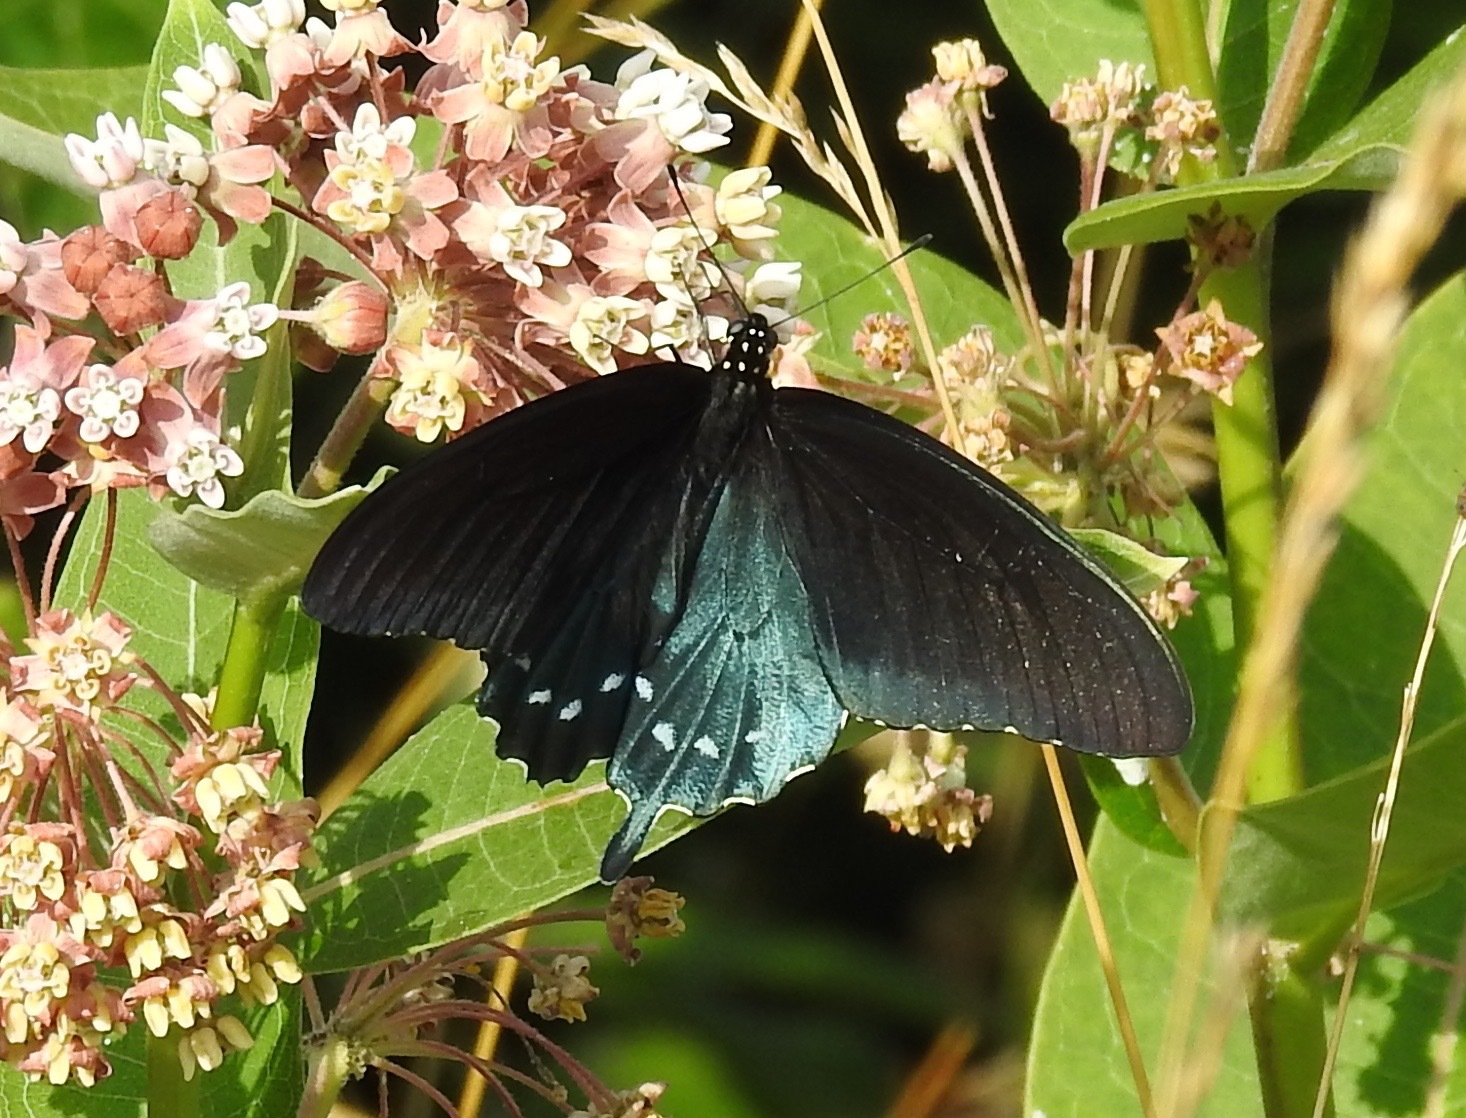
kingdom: Animalia
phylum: Arthropoda
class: Insecta
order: Lepidoptera
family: Papilionidae
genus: Battus
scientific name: Battus philenor
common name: Pipevine swallowtail
